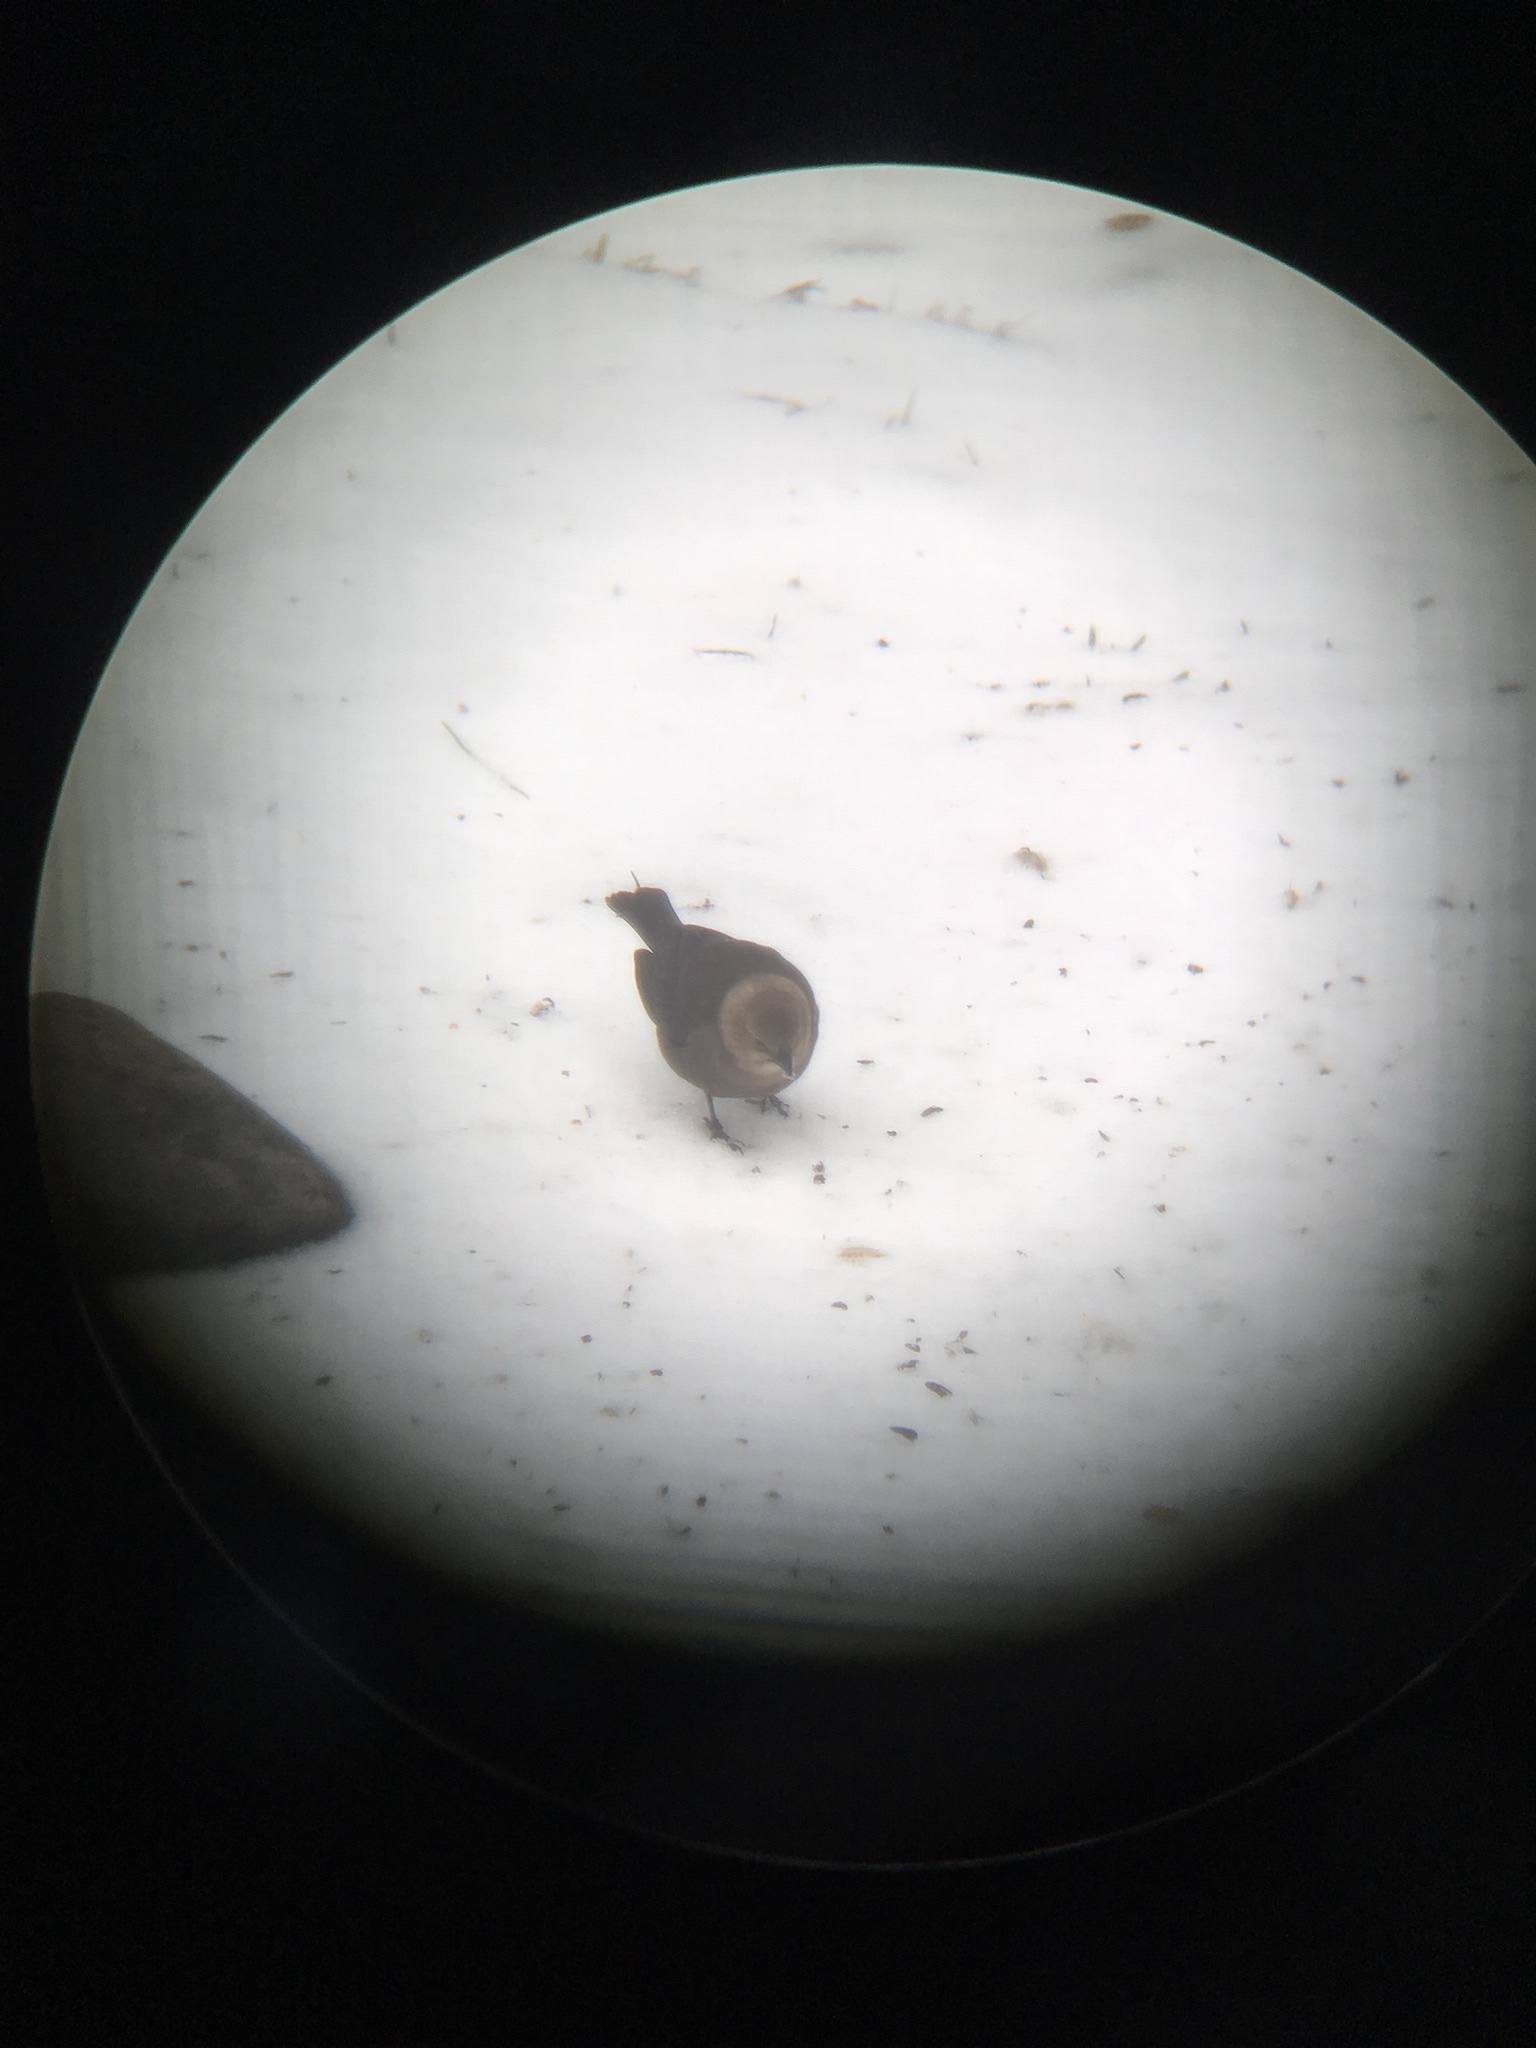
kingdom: Animalia
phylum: Chordata
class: Aves
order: Passeriformes
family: Icteridae
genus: Molothrus
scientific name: Molothrus ater
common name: Brown-headed cowbird
